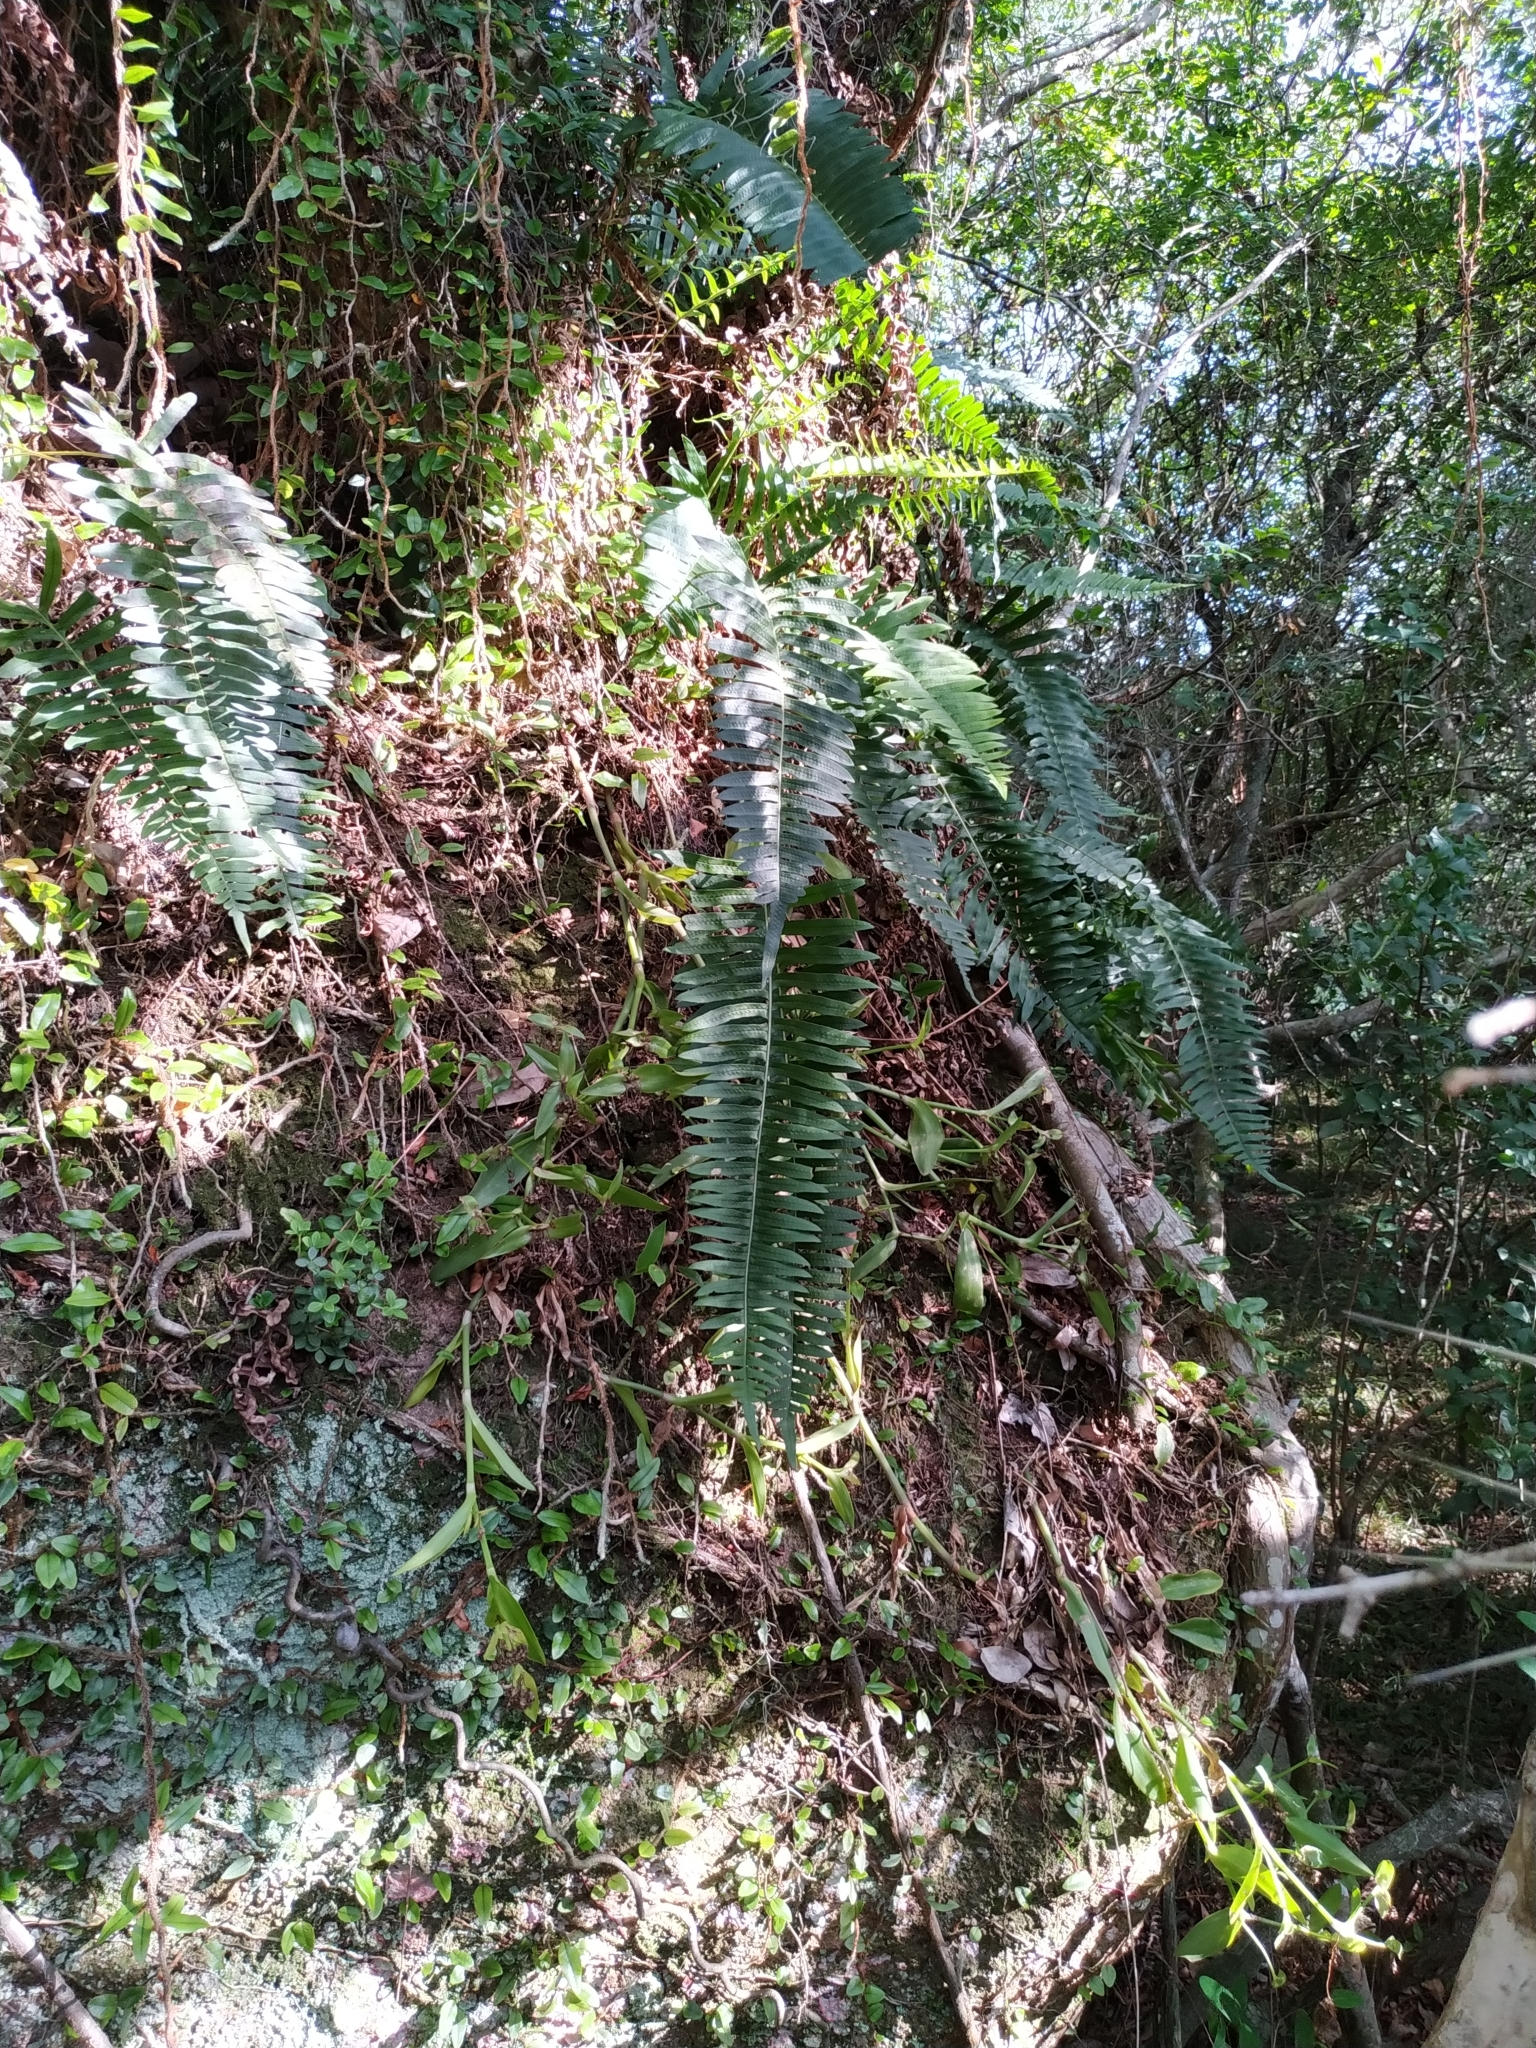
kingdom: Plantae
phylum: Tracheophyta
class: Polypodiopsida
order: Polypodiales
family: Polypodiaceae
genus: Serpocaulon
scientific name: Serpocaulon catharinae
